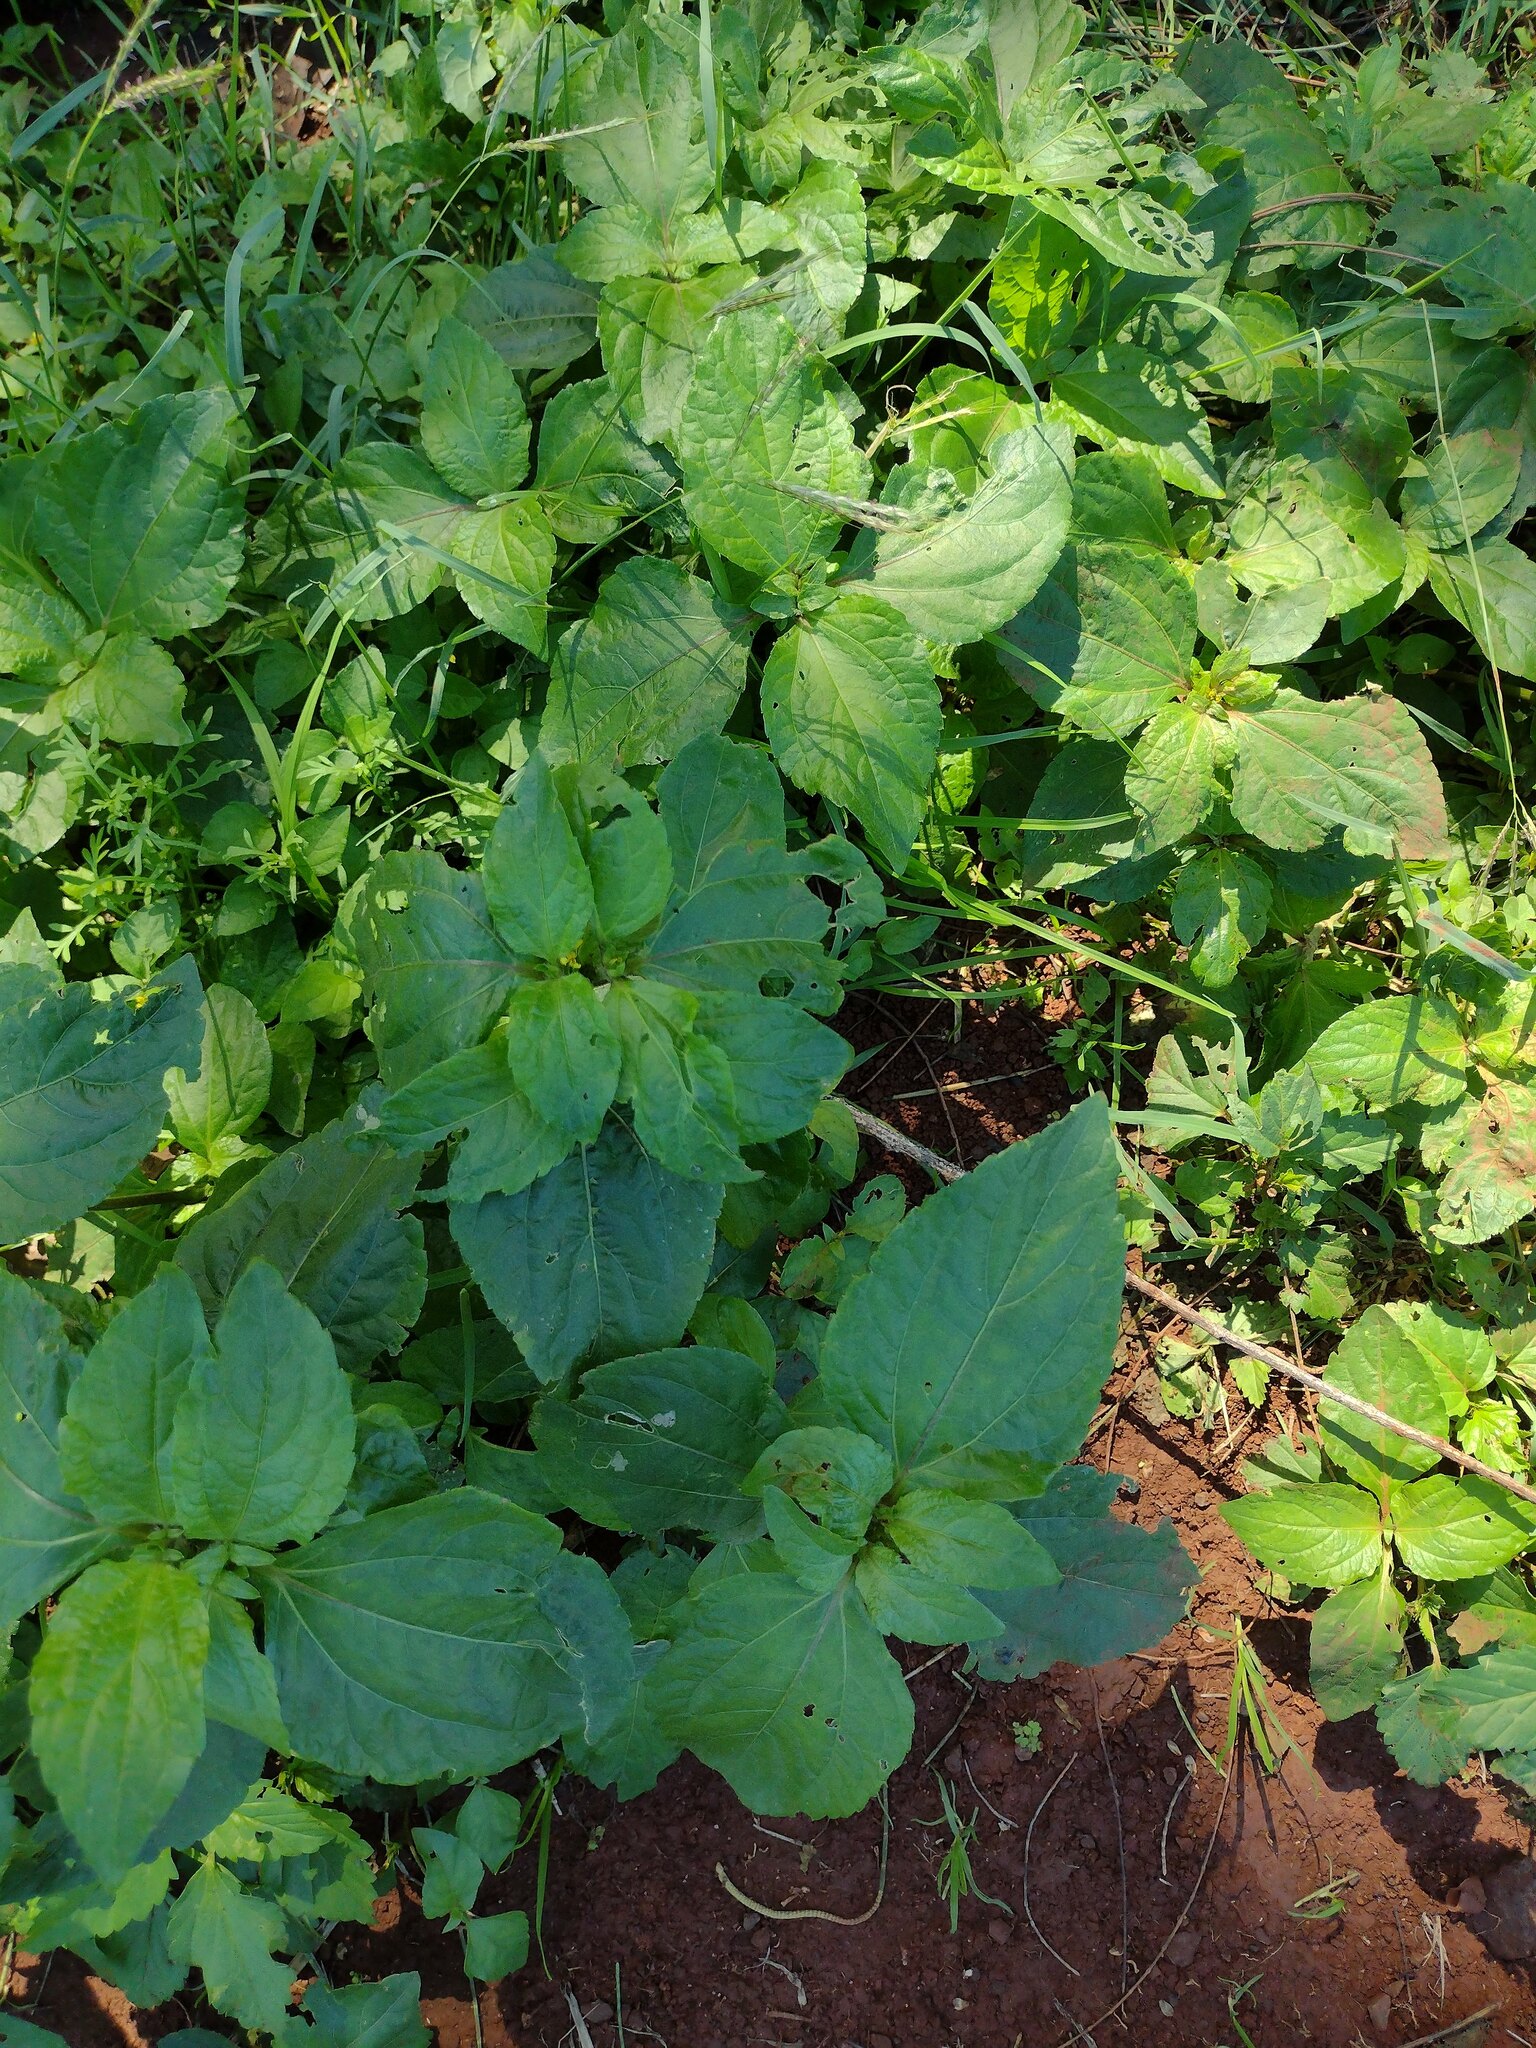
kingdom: Plantae
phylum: Tracheophyta
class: Magnoliopsida
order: Asterales
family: Asteraceae
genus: Synedrella
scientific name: Synedrella nodiflora
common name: Nodeweed
